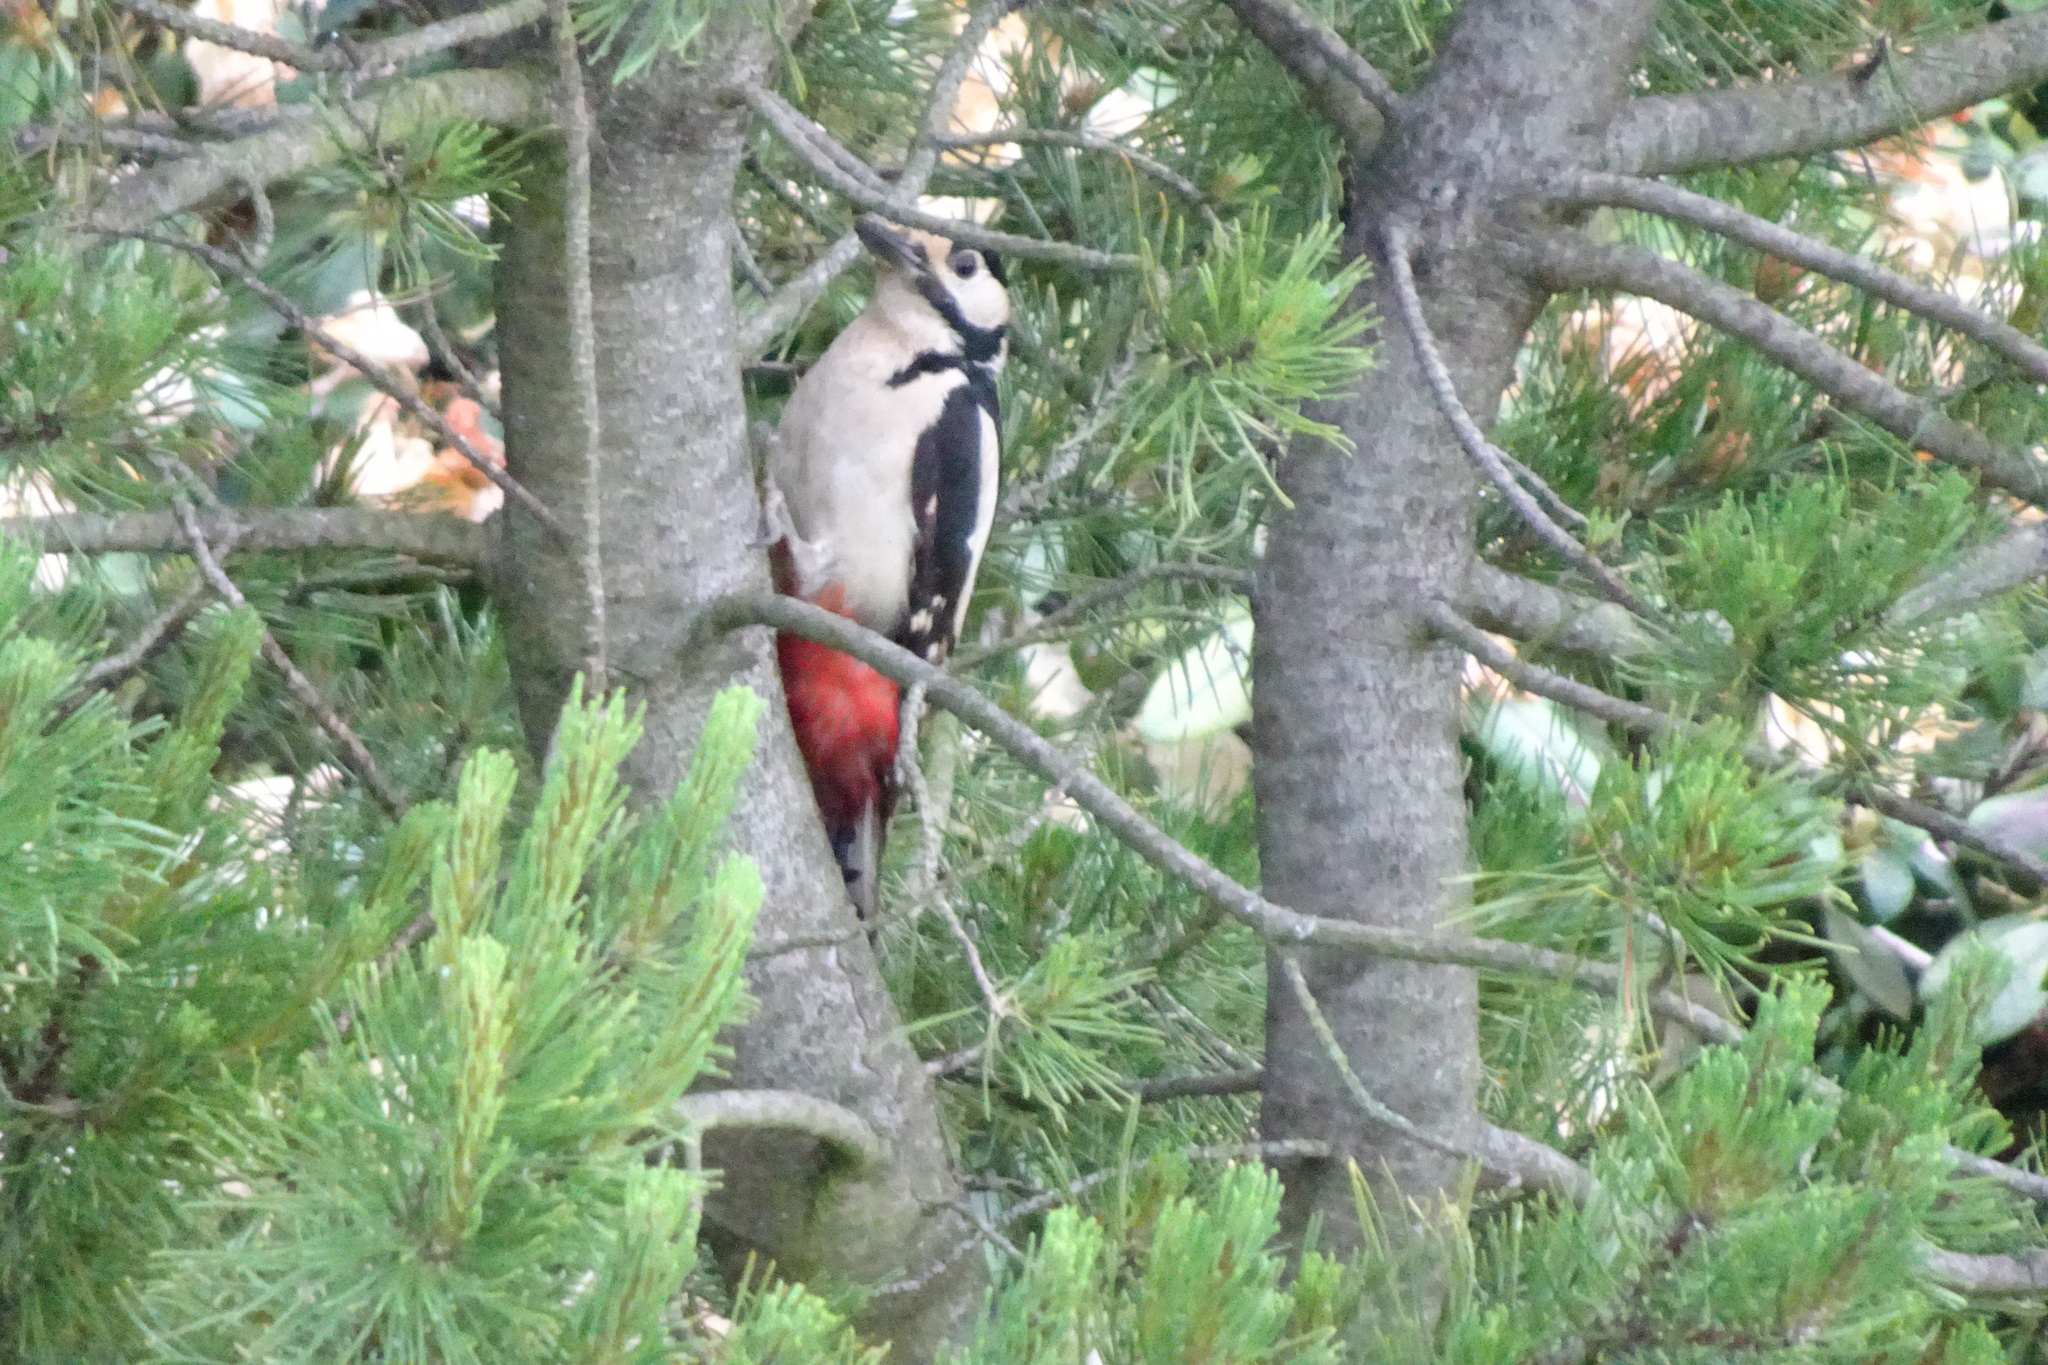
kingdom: Animalia
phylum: Chordata
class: Aves
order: Piciformes
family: Picidae
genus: Dendrocopos
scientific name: Dendrocopos major
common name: Great spotted woodpecker
